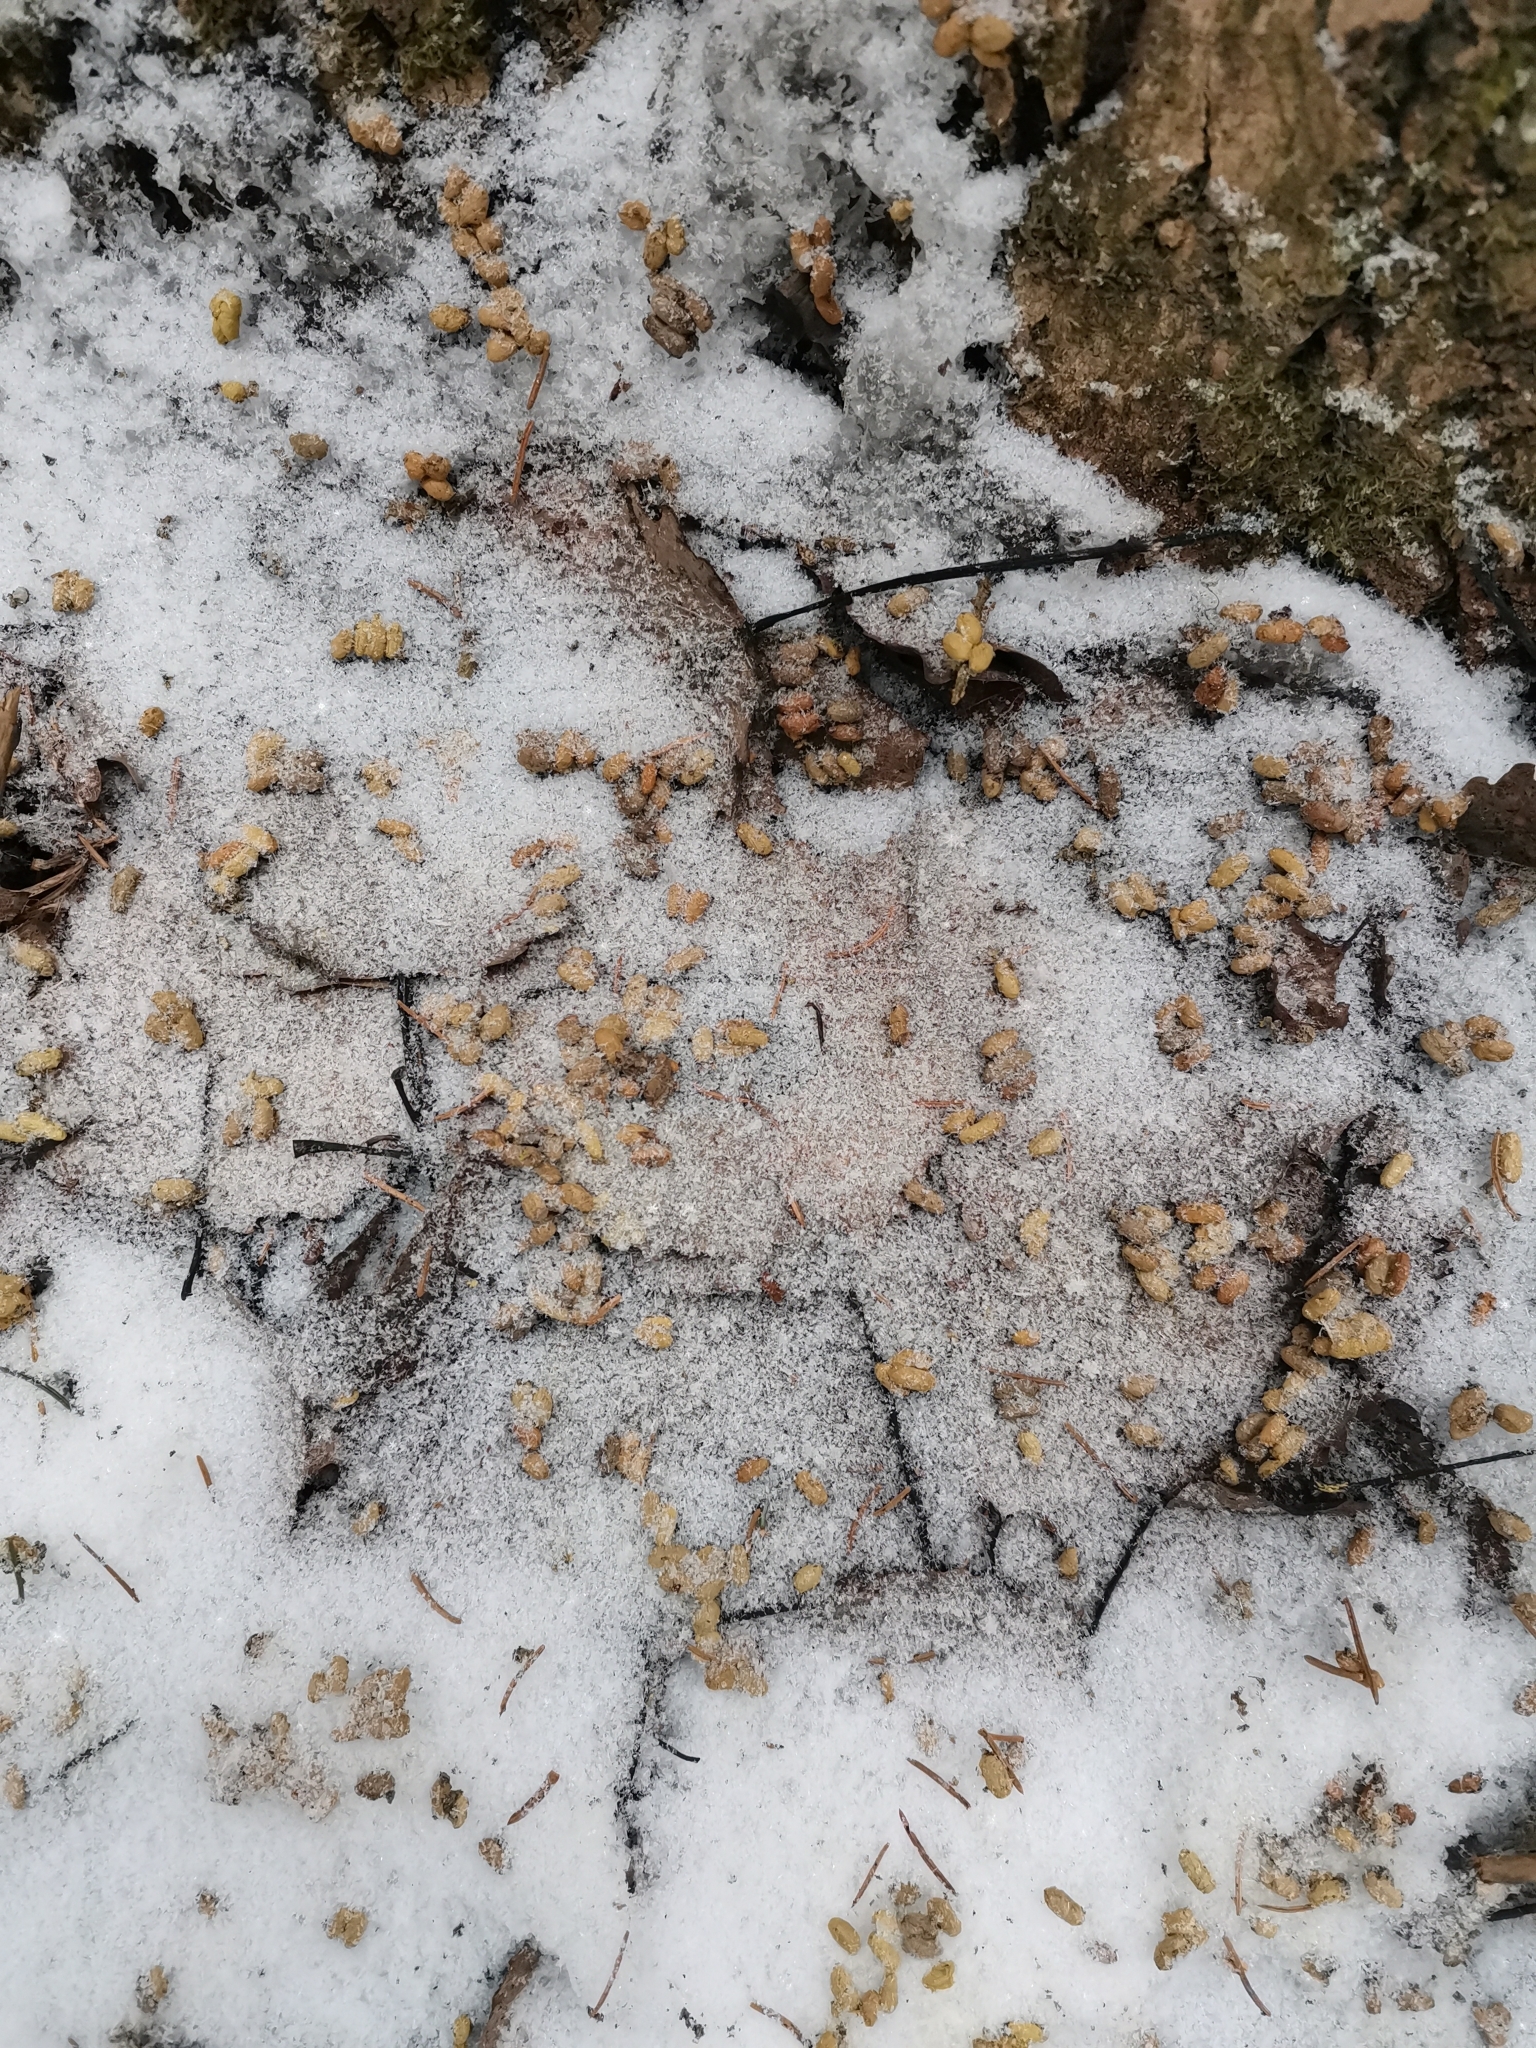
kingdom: Animalia
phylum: Chordata
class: Mammalia
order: Rodentia
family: Sciuridae
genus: Pteromys
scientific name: Pteromys volans
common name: Siberian flying squirrel
